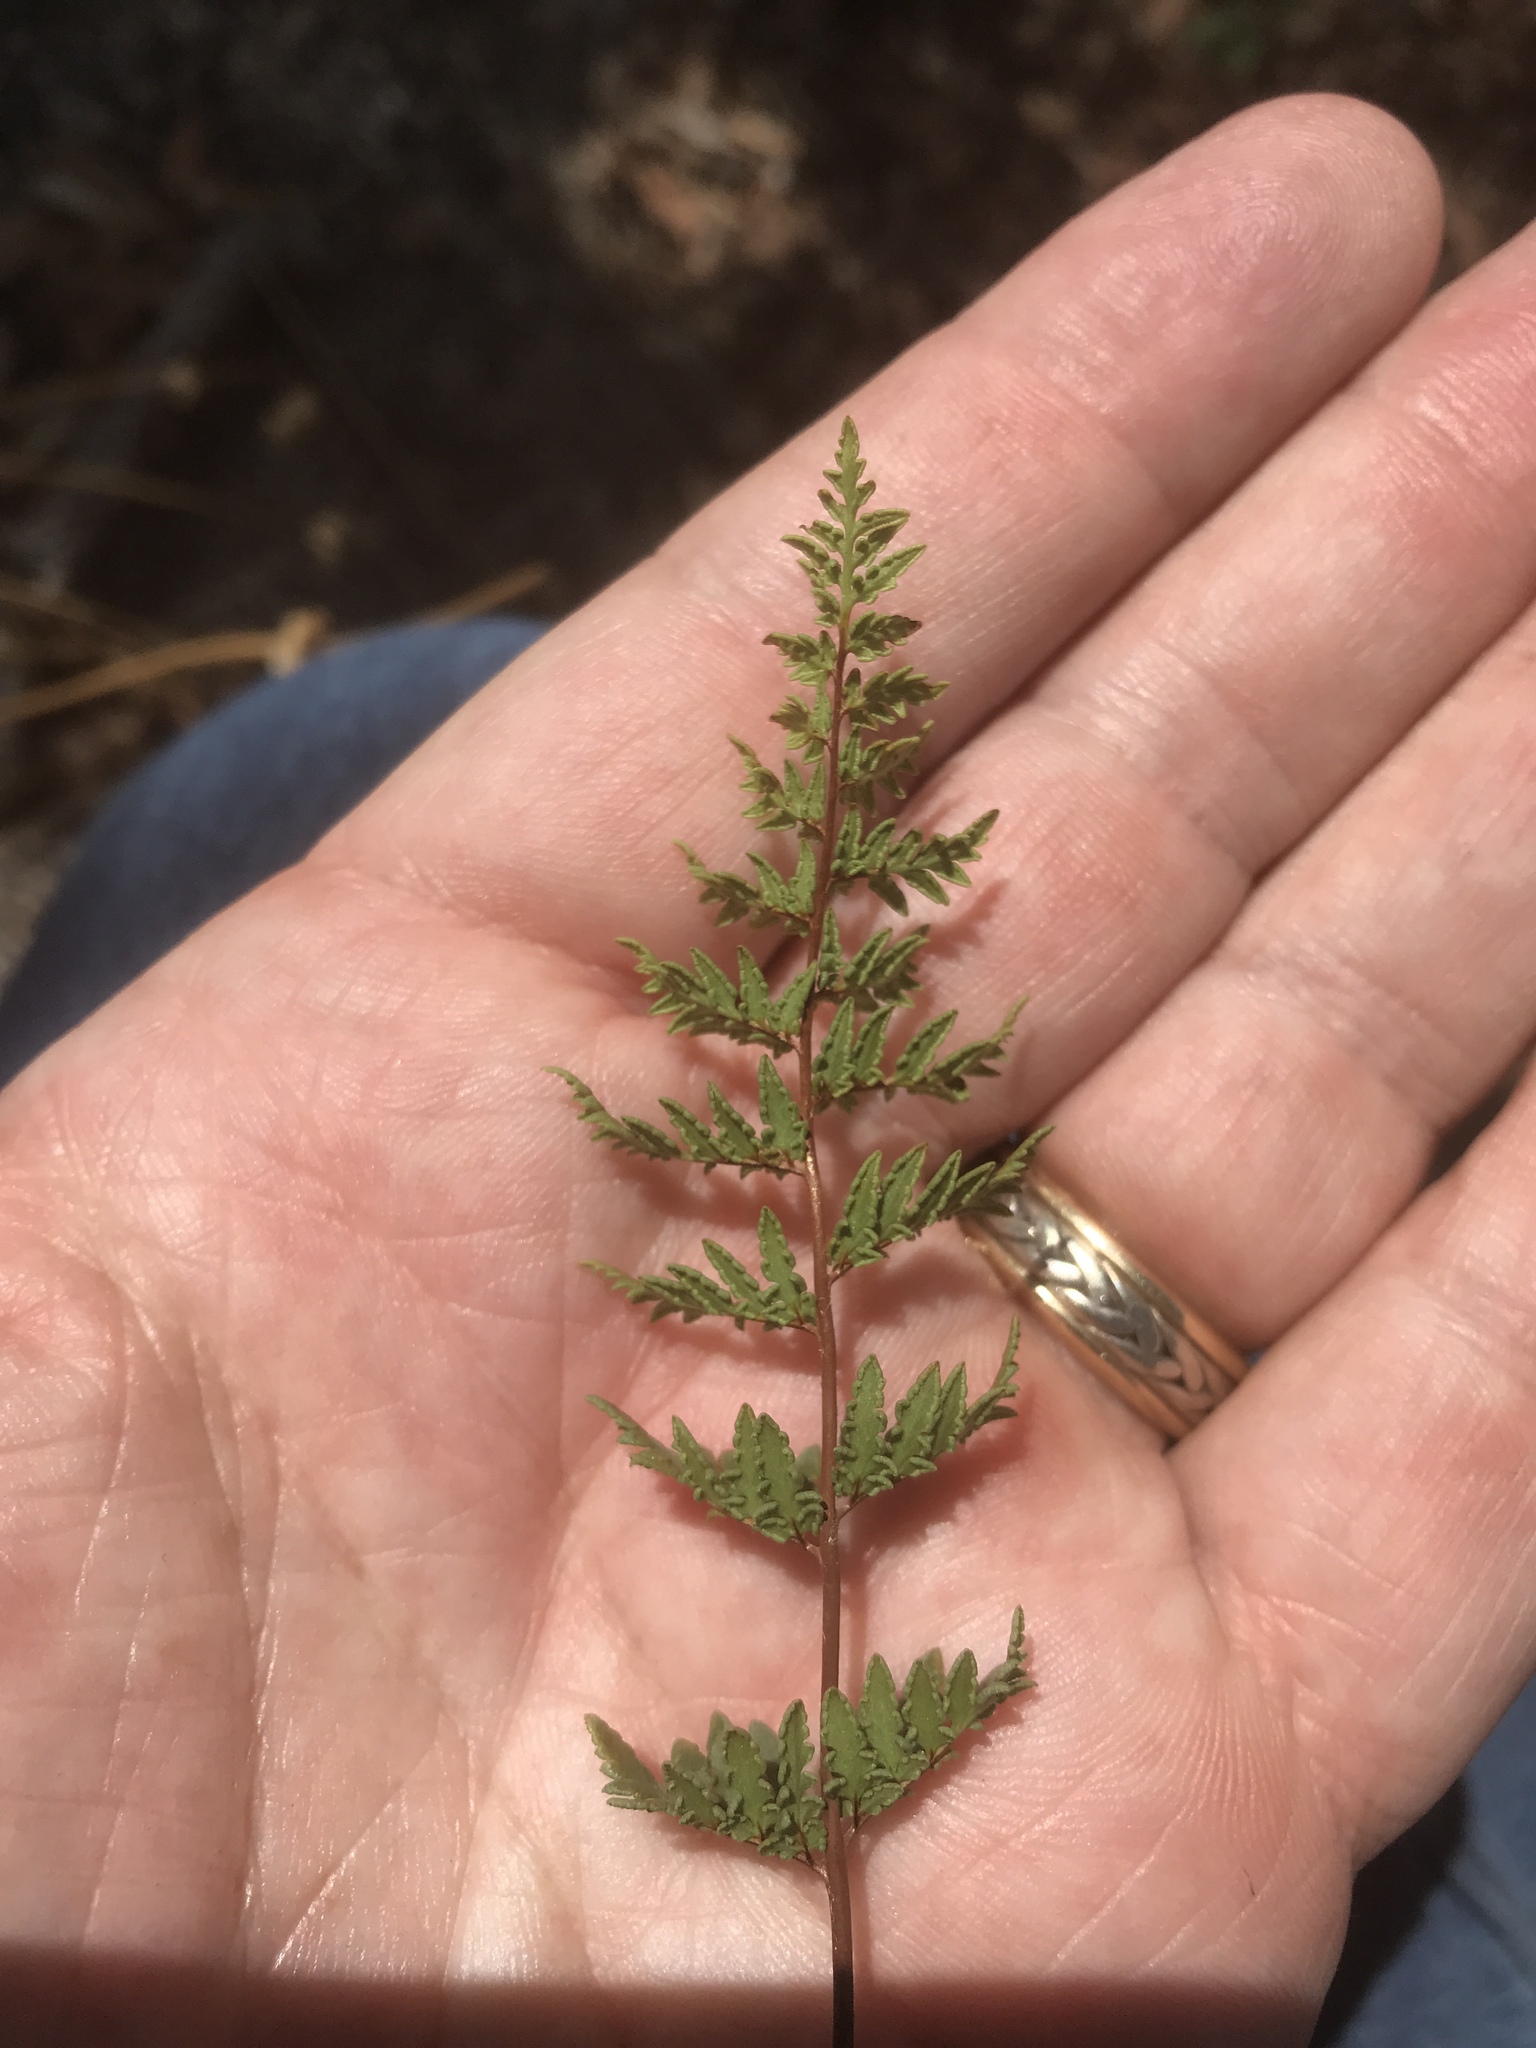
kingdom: Plantae
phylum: Tracheophyta
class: Polypodiopsida
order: Polypodiales
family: Pteridaceae
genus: Myriopteris
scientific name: Myriopteris wrightii
